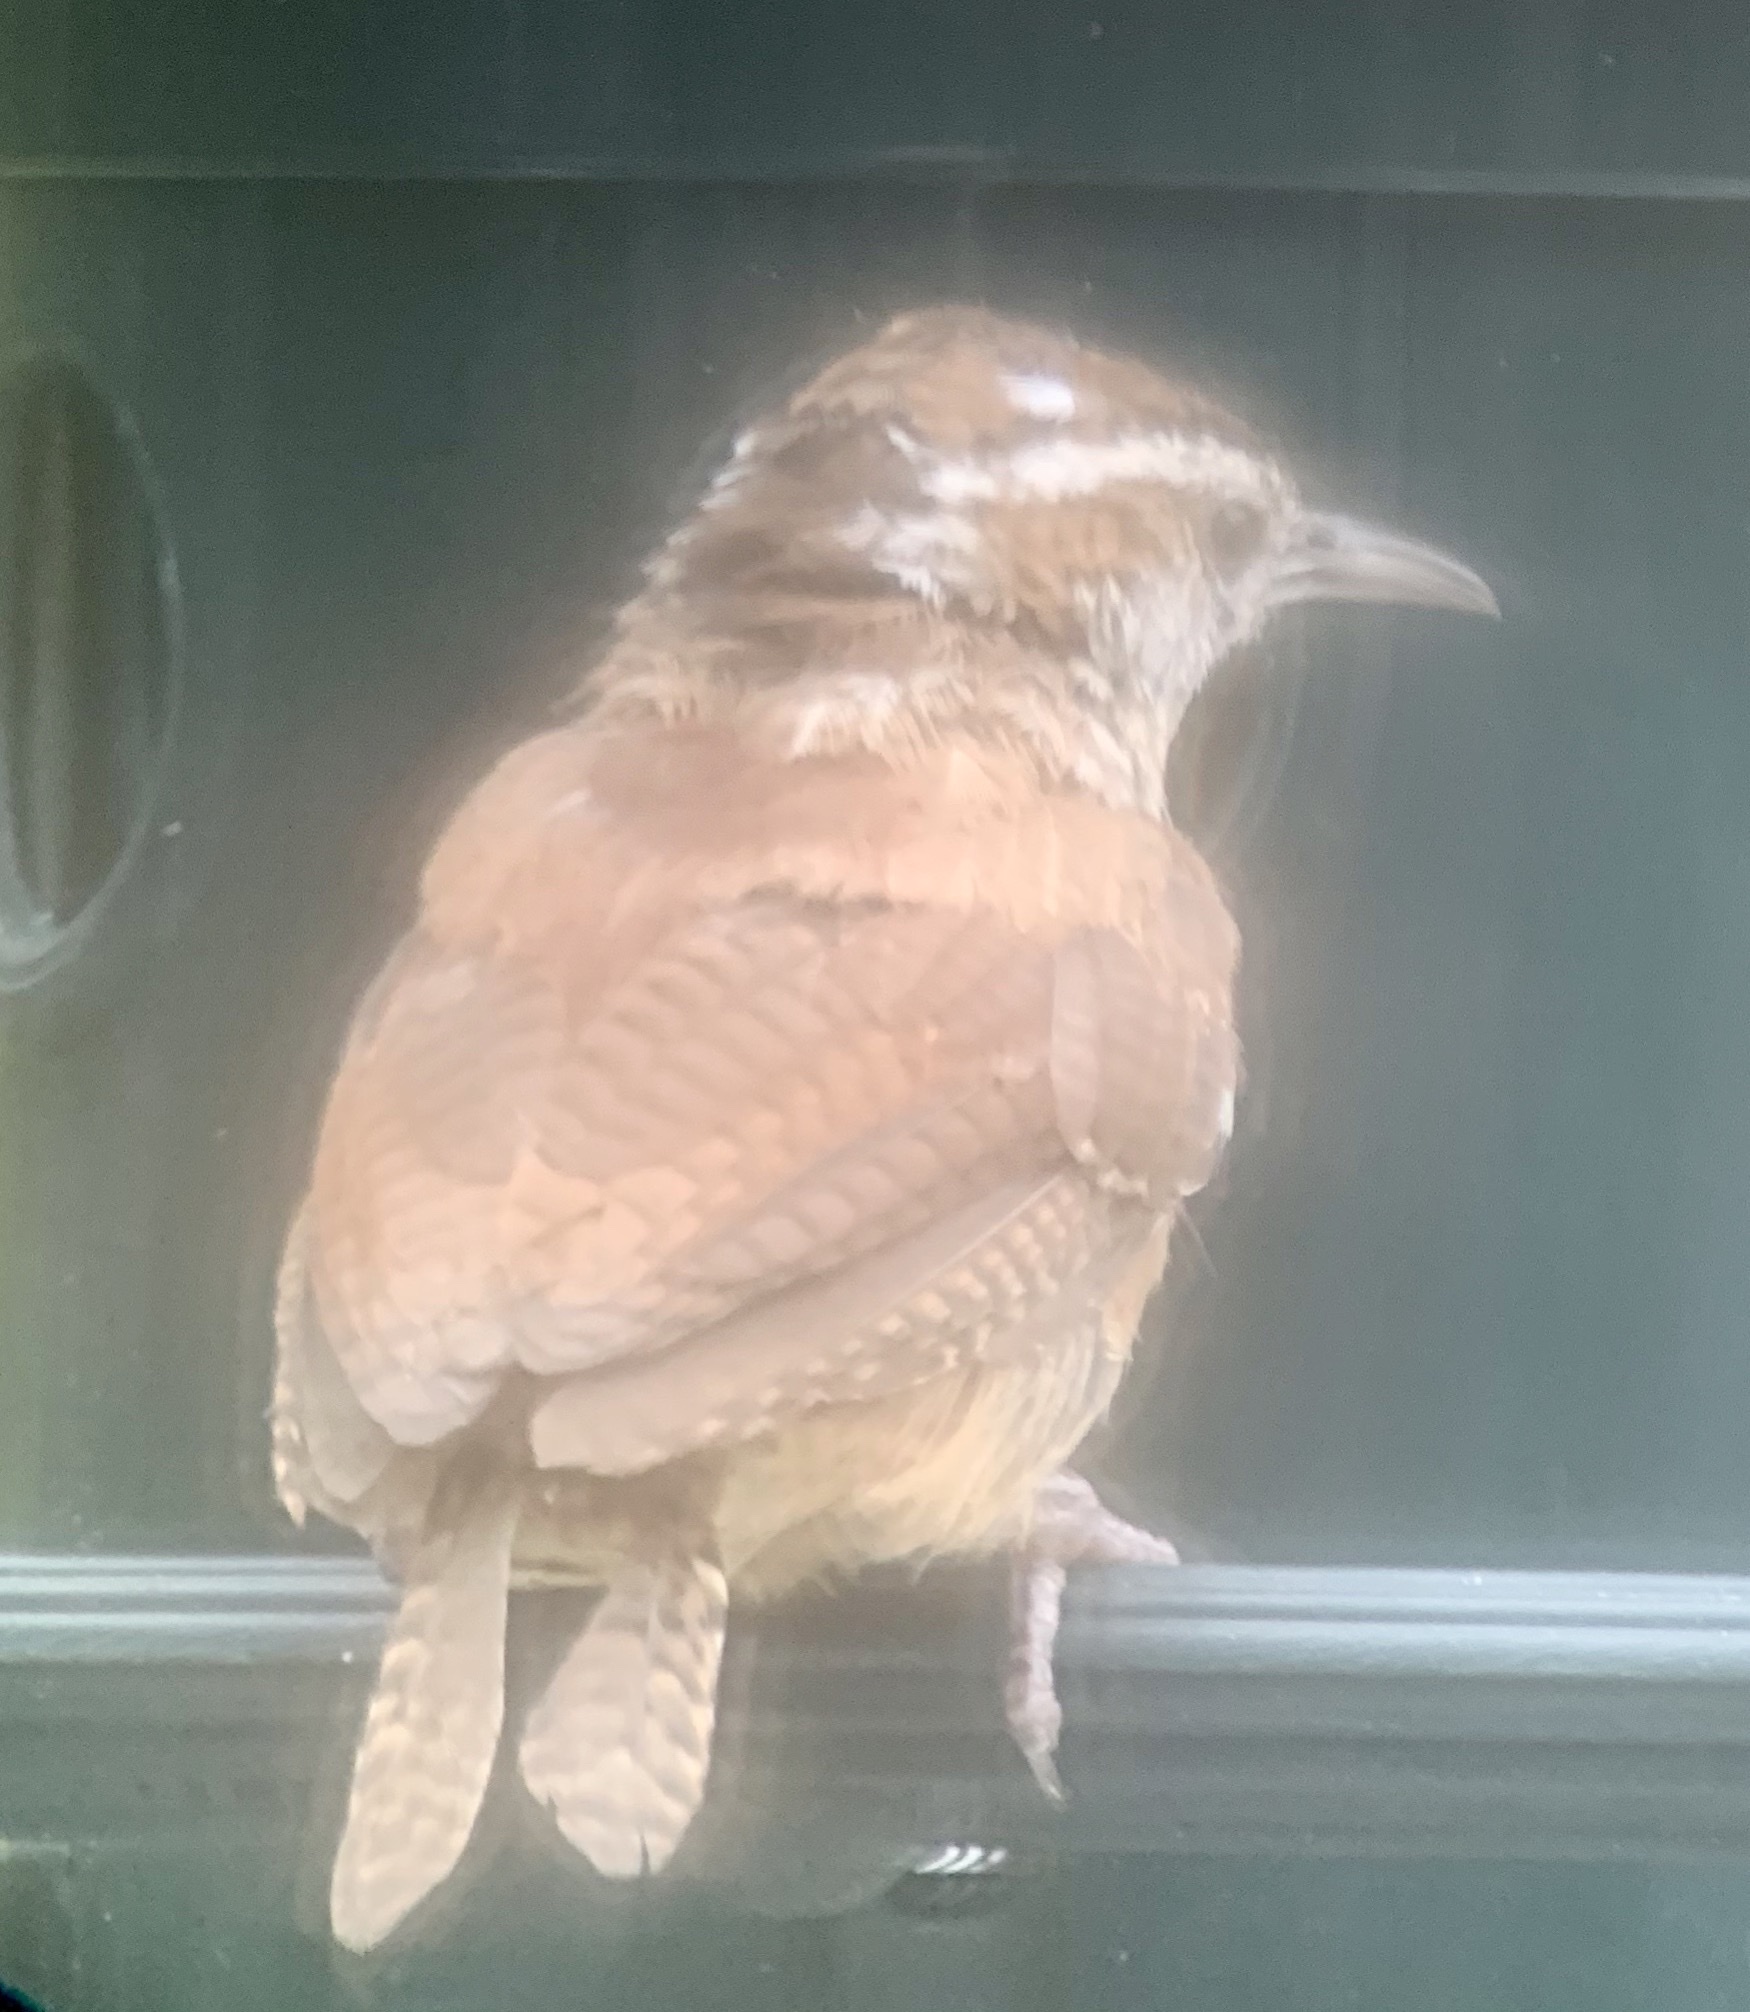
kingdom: Animalia
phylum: Chordata
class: Aves
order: Passeriformes
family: Troglodytidae
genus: Thryothorus
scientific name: Thryothorus ludovicianus
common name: Carolina wren
